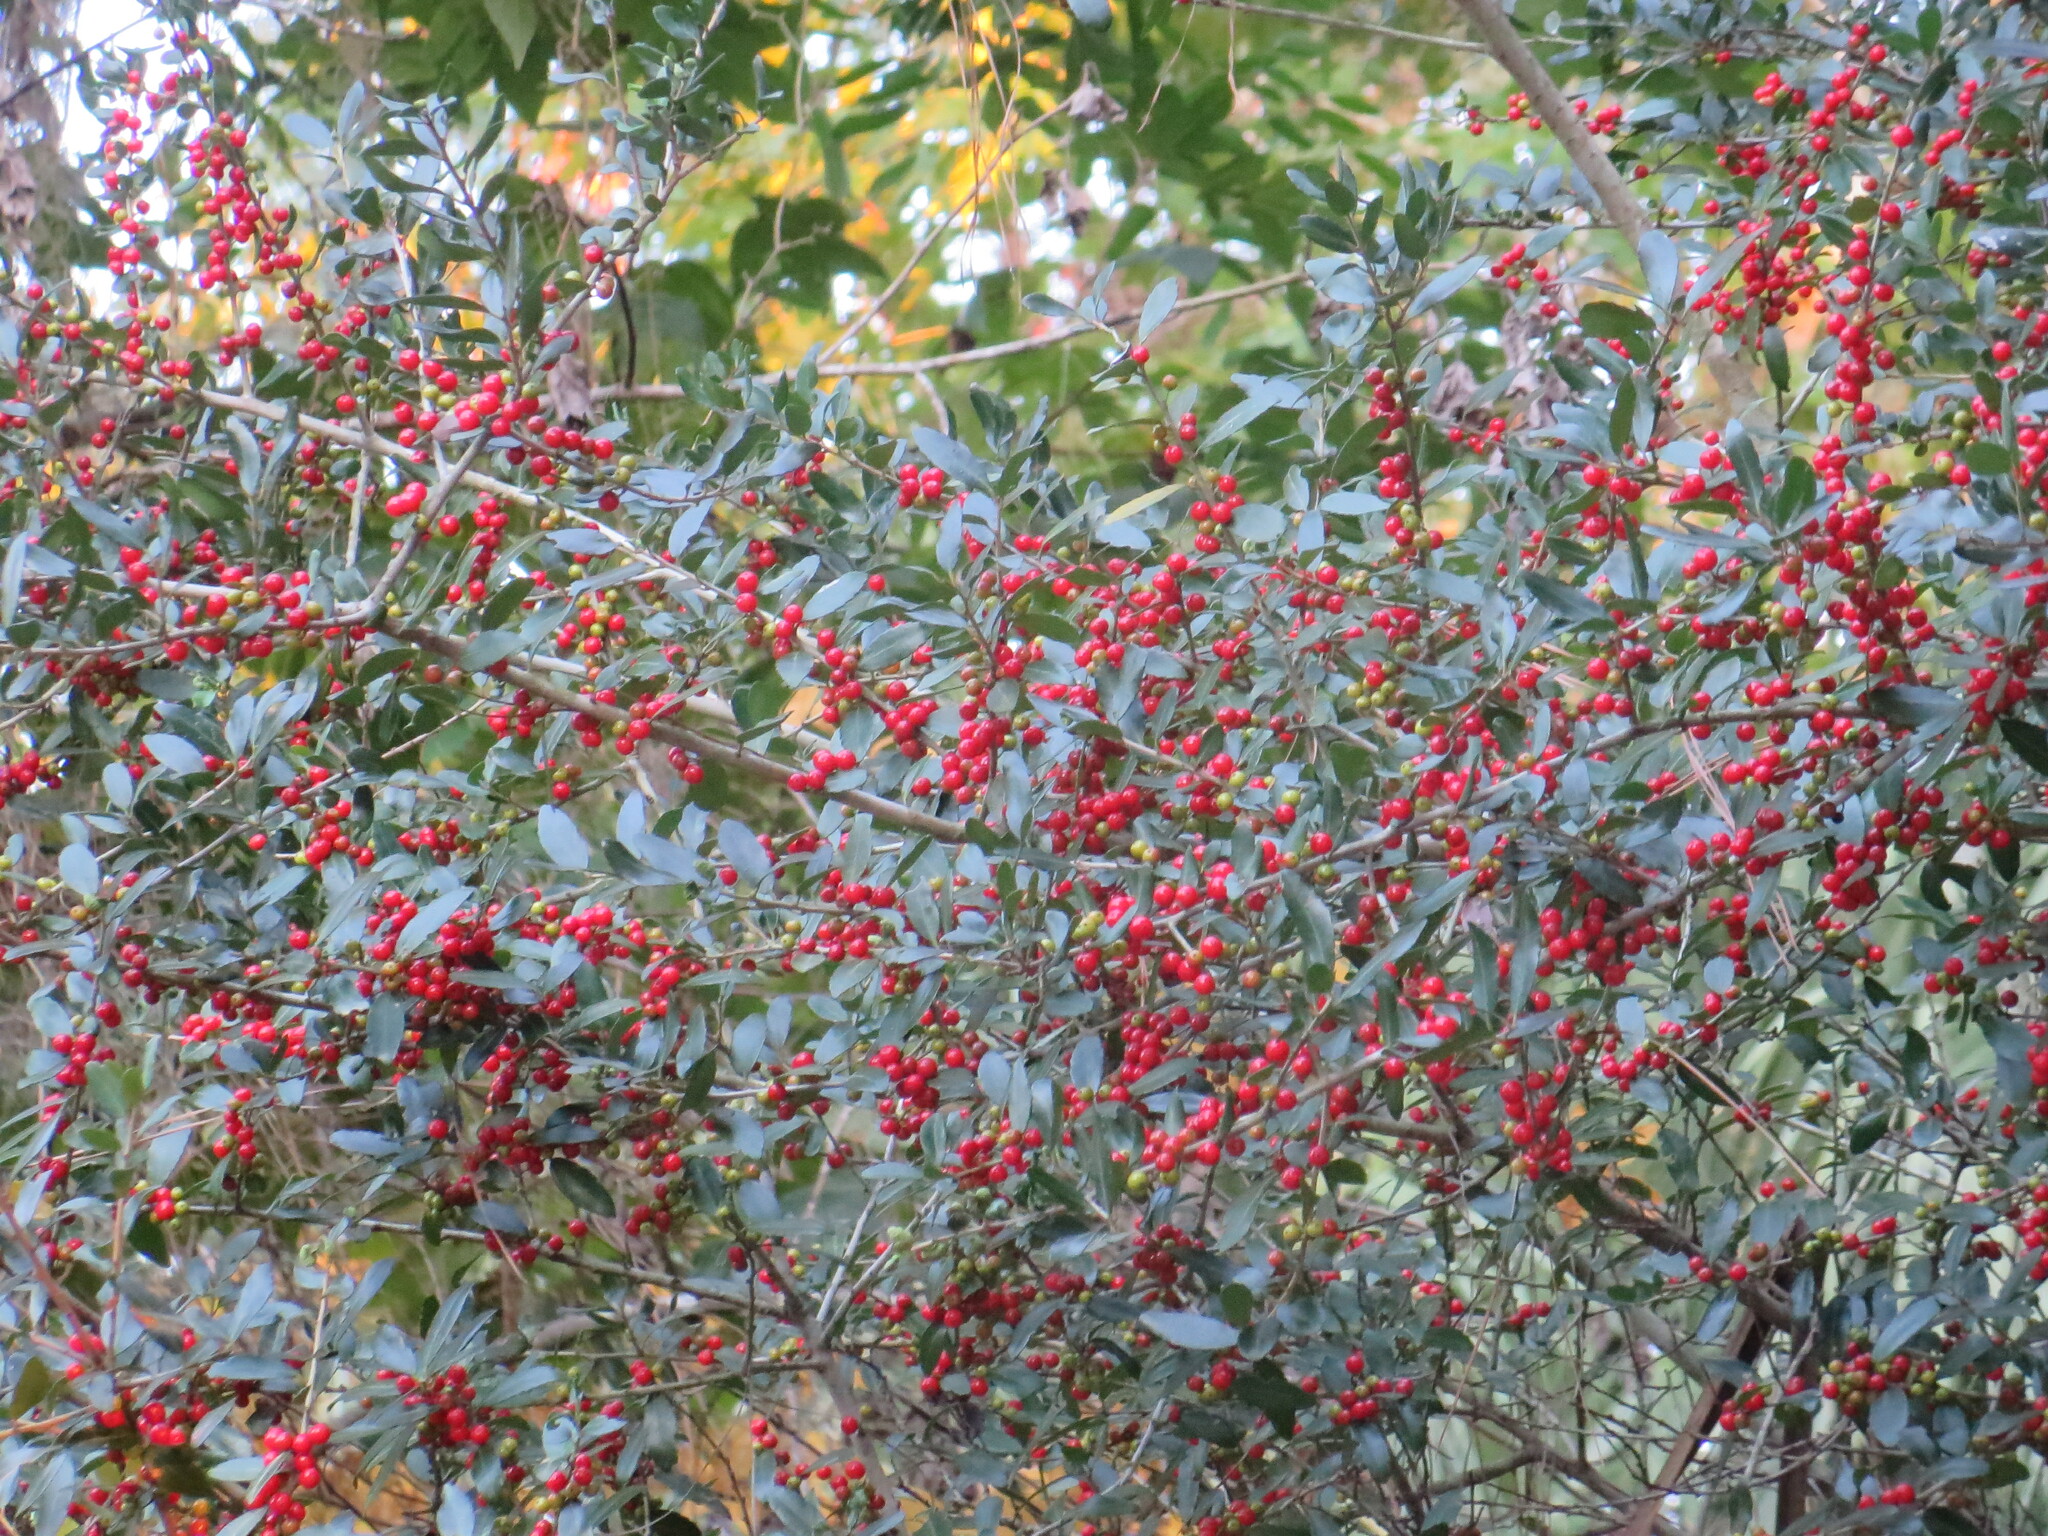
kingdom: Plantae
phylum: Tracheophyta
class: Magnoliopsida
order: Aquifoliales
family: Aquifoliaceae
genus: Ilex
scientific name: Ilex vomitoria
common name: Yaupon holly
